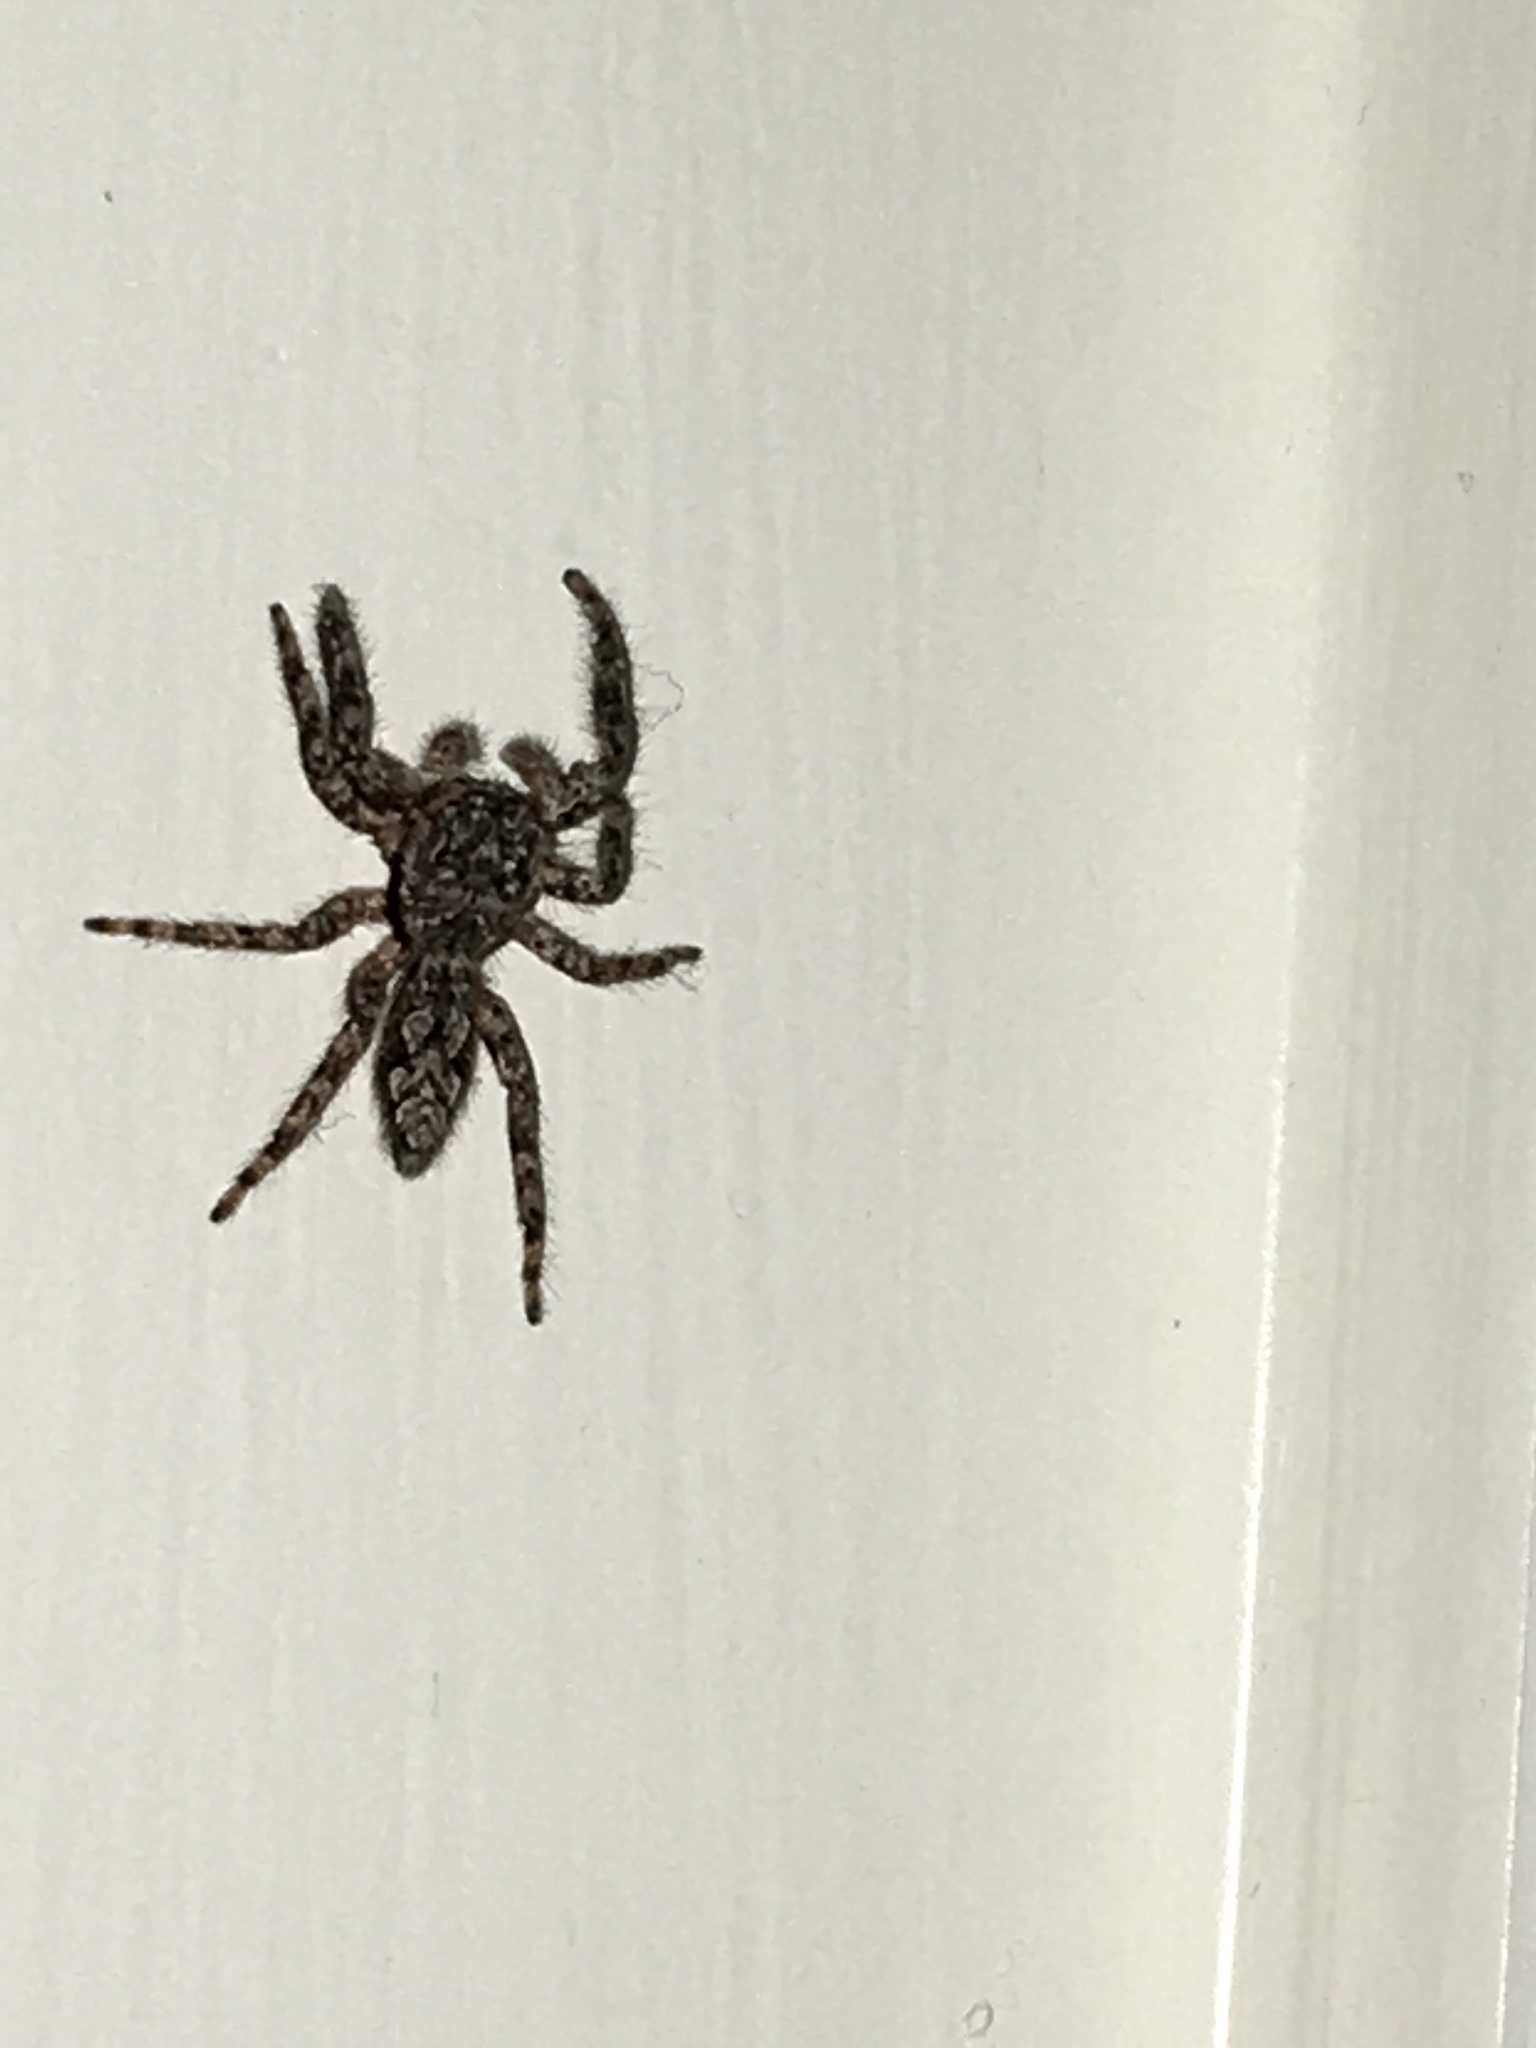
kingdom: Animalia
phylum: Arthropoda
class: Arachnida
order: Araneae
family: Salticidae
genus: Platycryptus
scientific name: Platycryptus undatus
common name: Tan jumping spider
